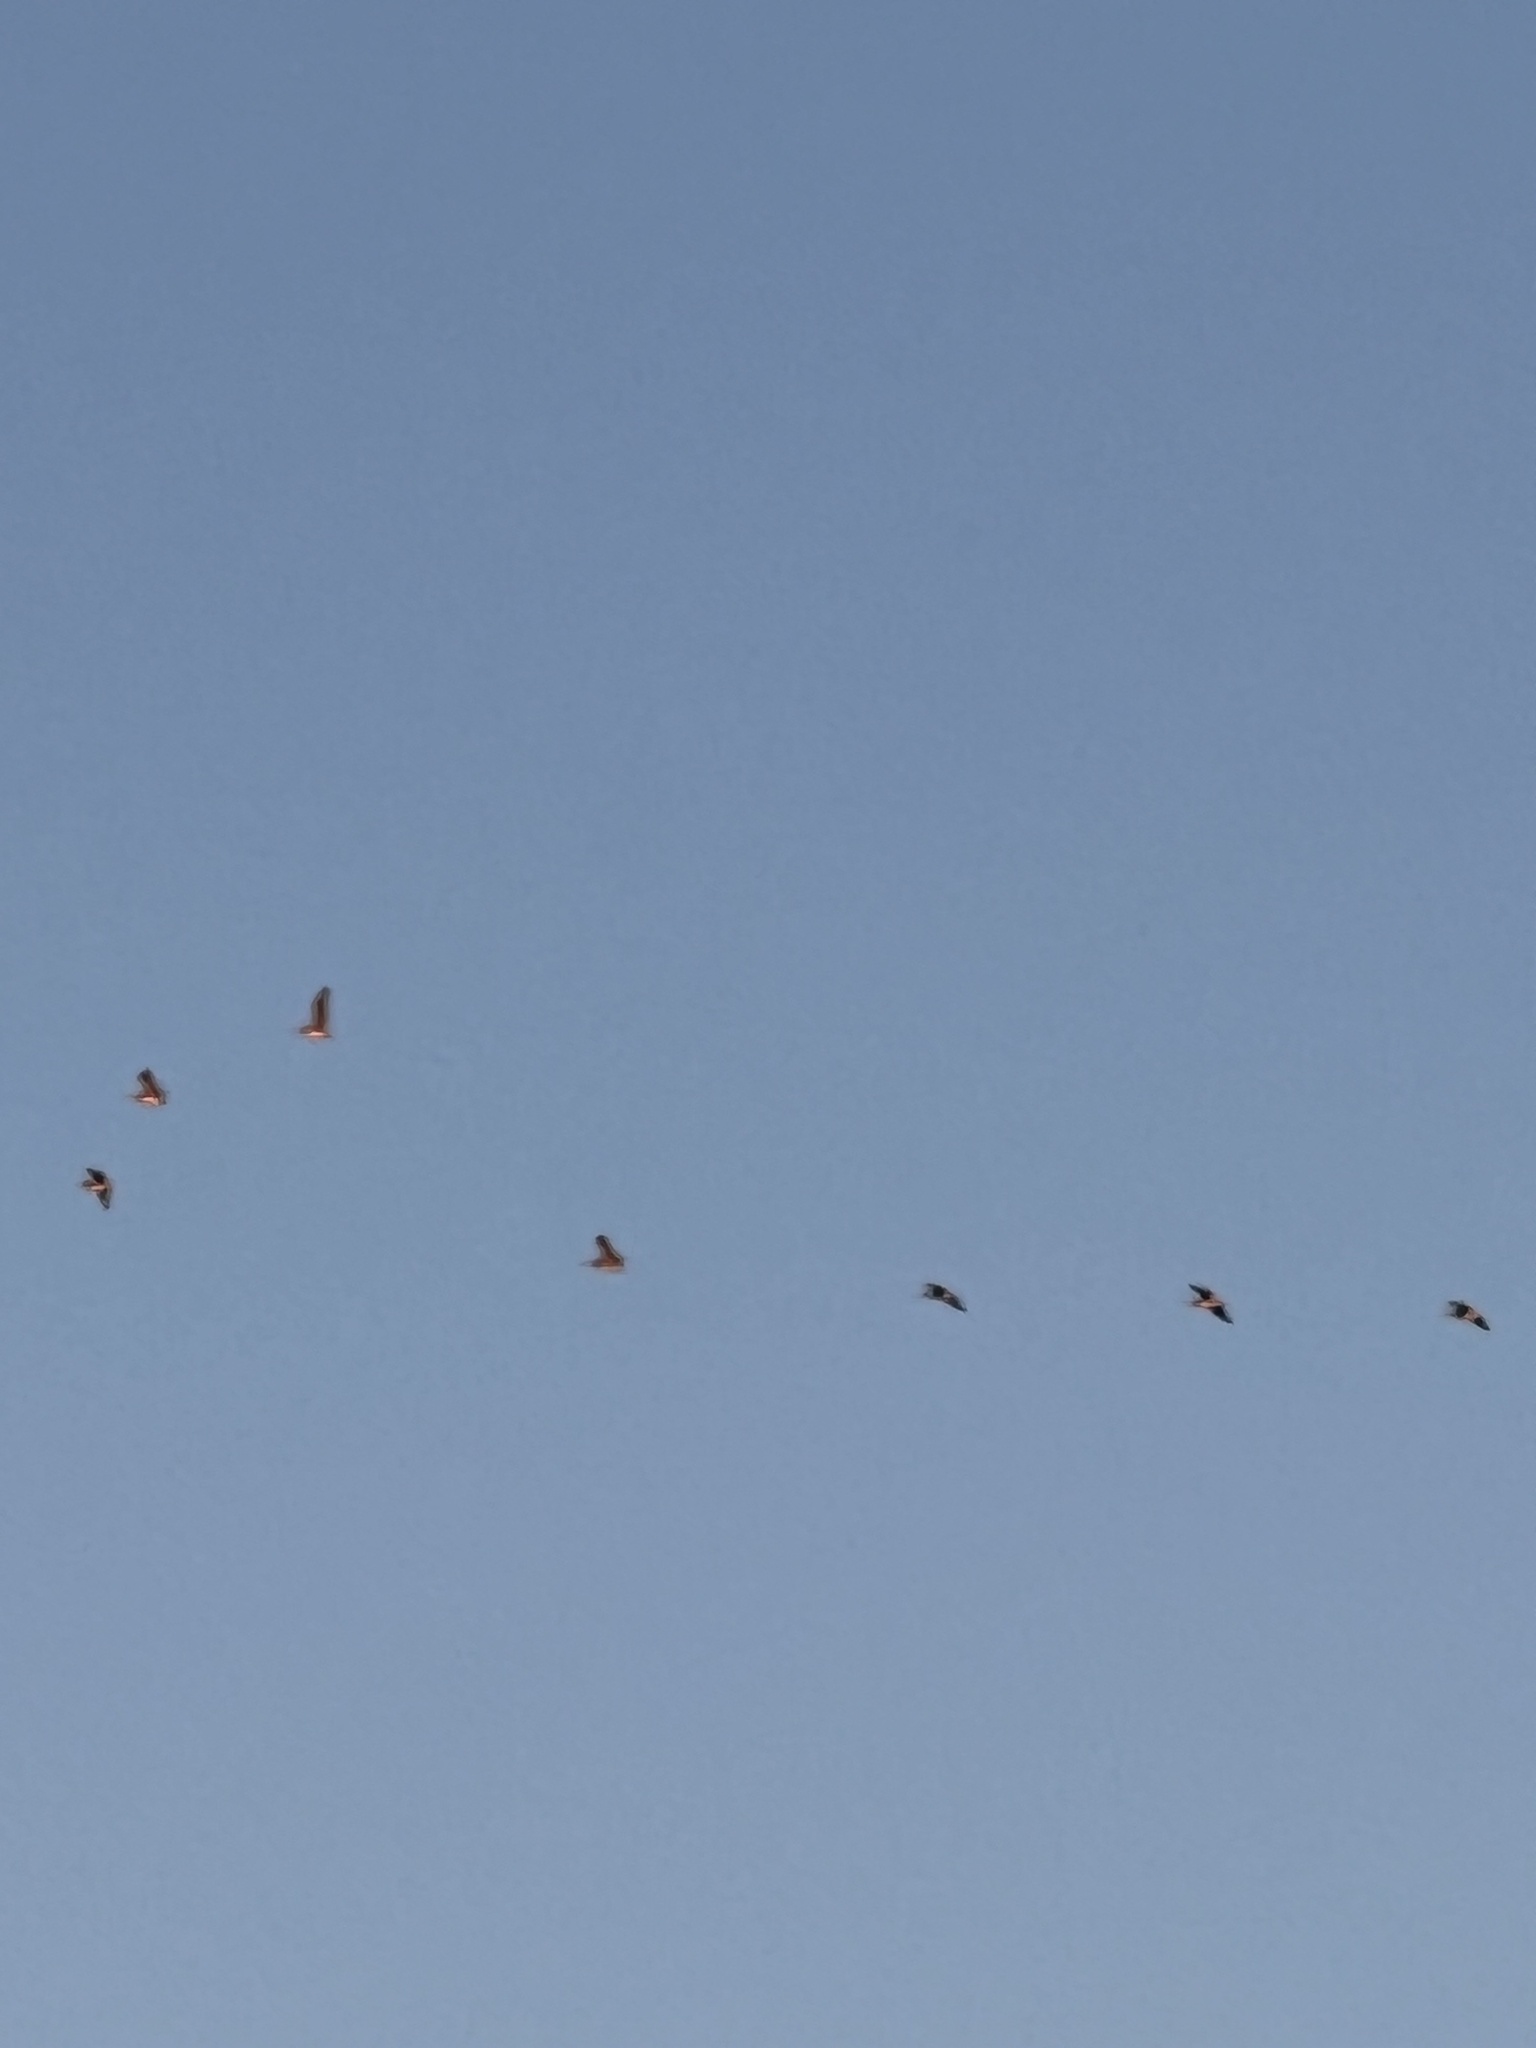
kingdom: Animalia
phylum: Chordata
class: Aves
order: Pelecaniformes
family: Pelecanidae
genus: Pelecanus
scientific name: Pelecanus occidentalis
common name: Brown pelican
